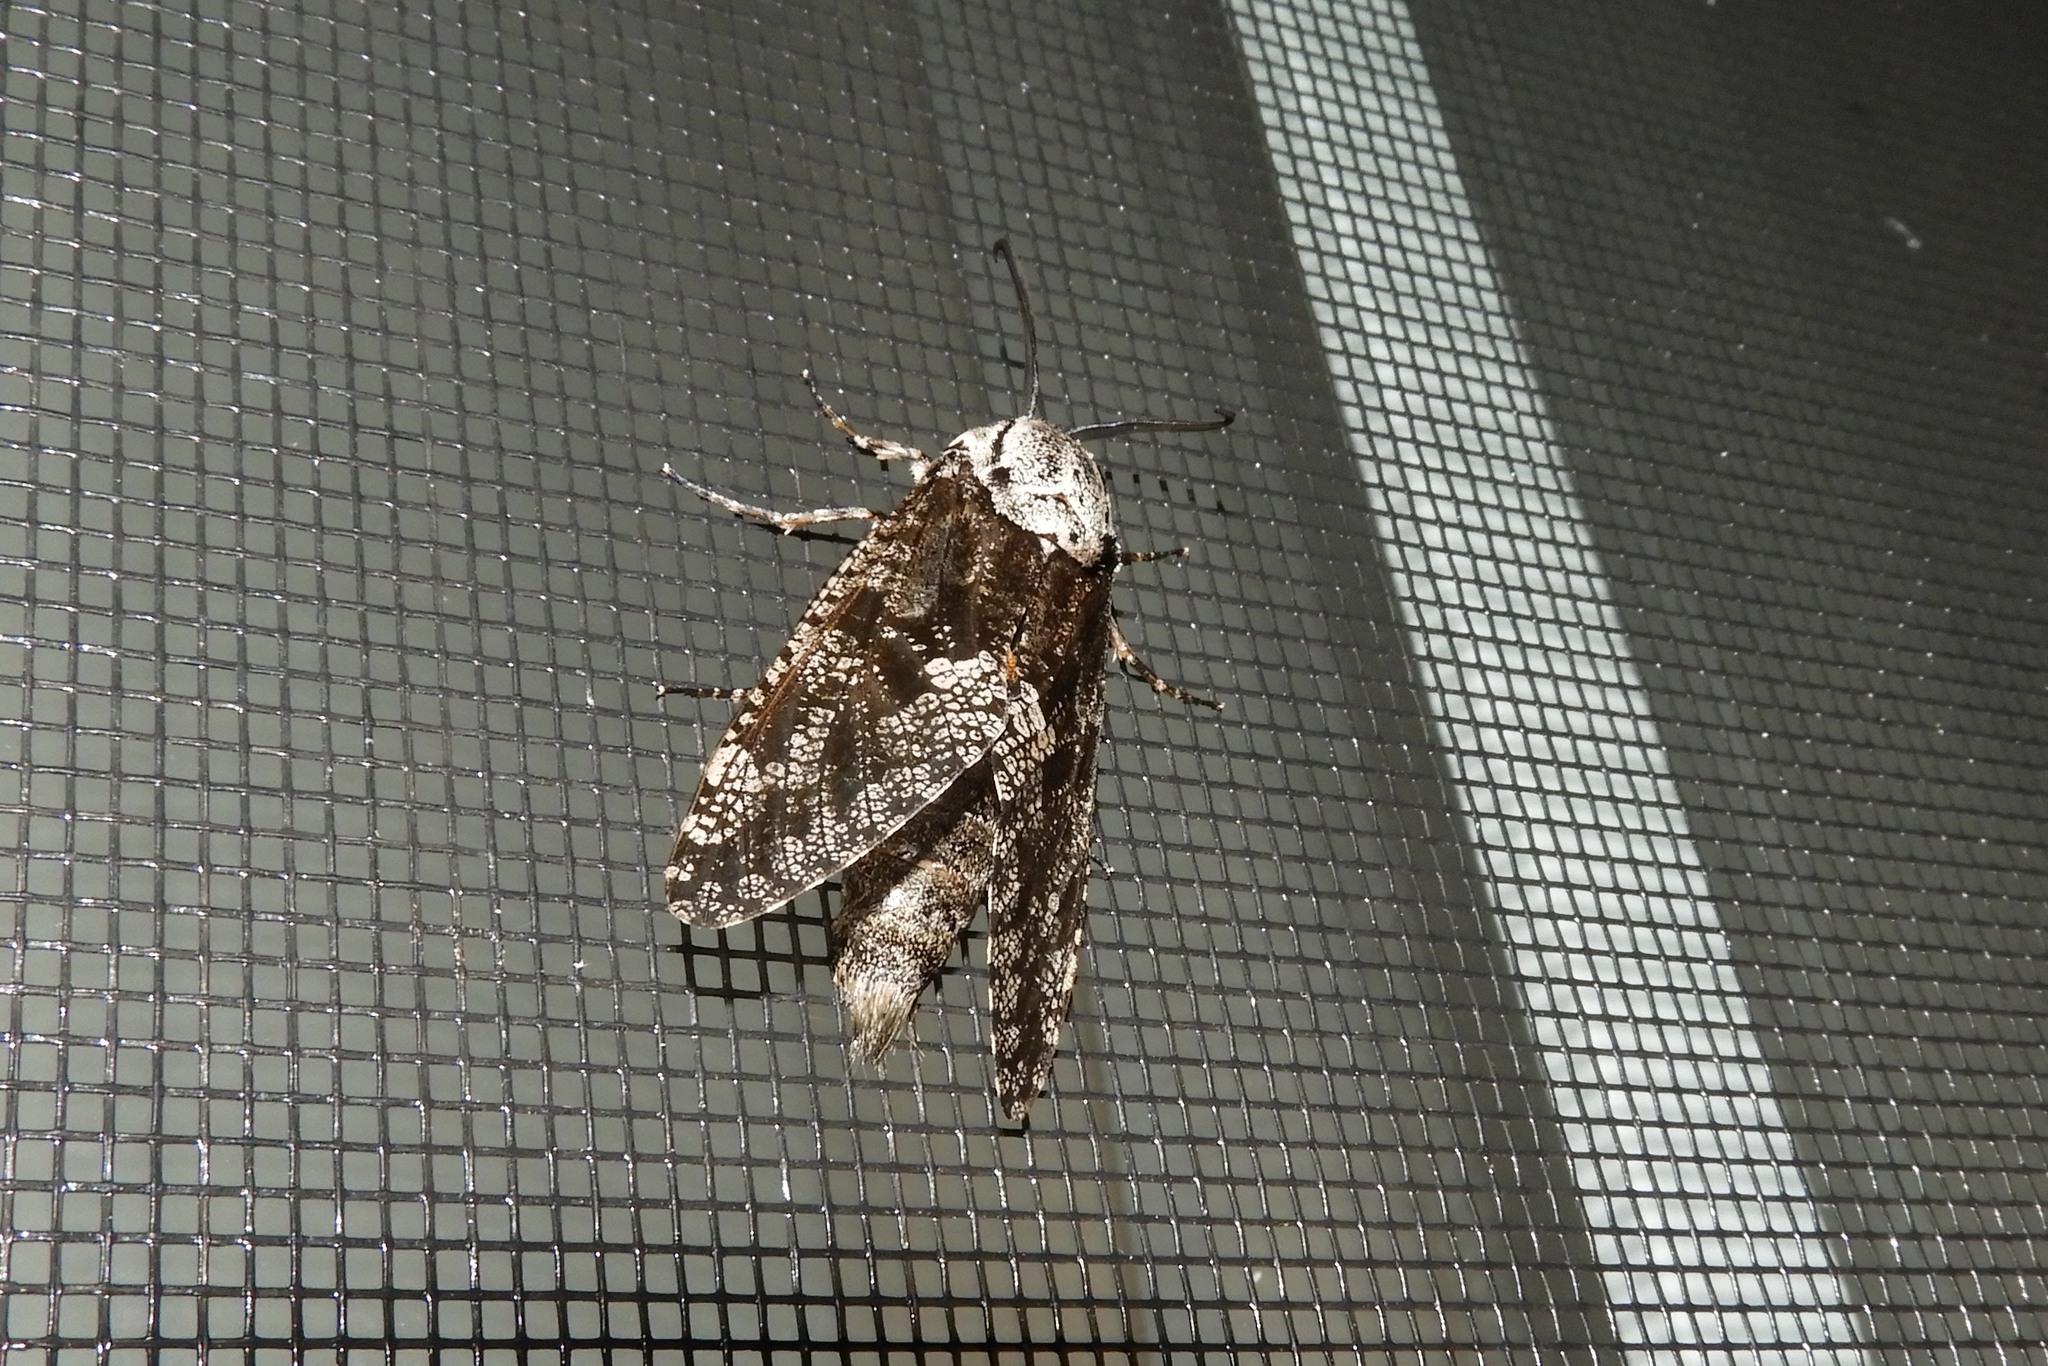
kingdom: Animalia
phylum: Arthropoda
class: Insecta
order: Lepidoptera
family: Cossidae
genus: Prionoxystus
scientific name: Prionoxystus robiniae
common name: Carpenterworm
